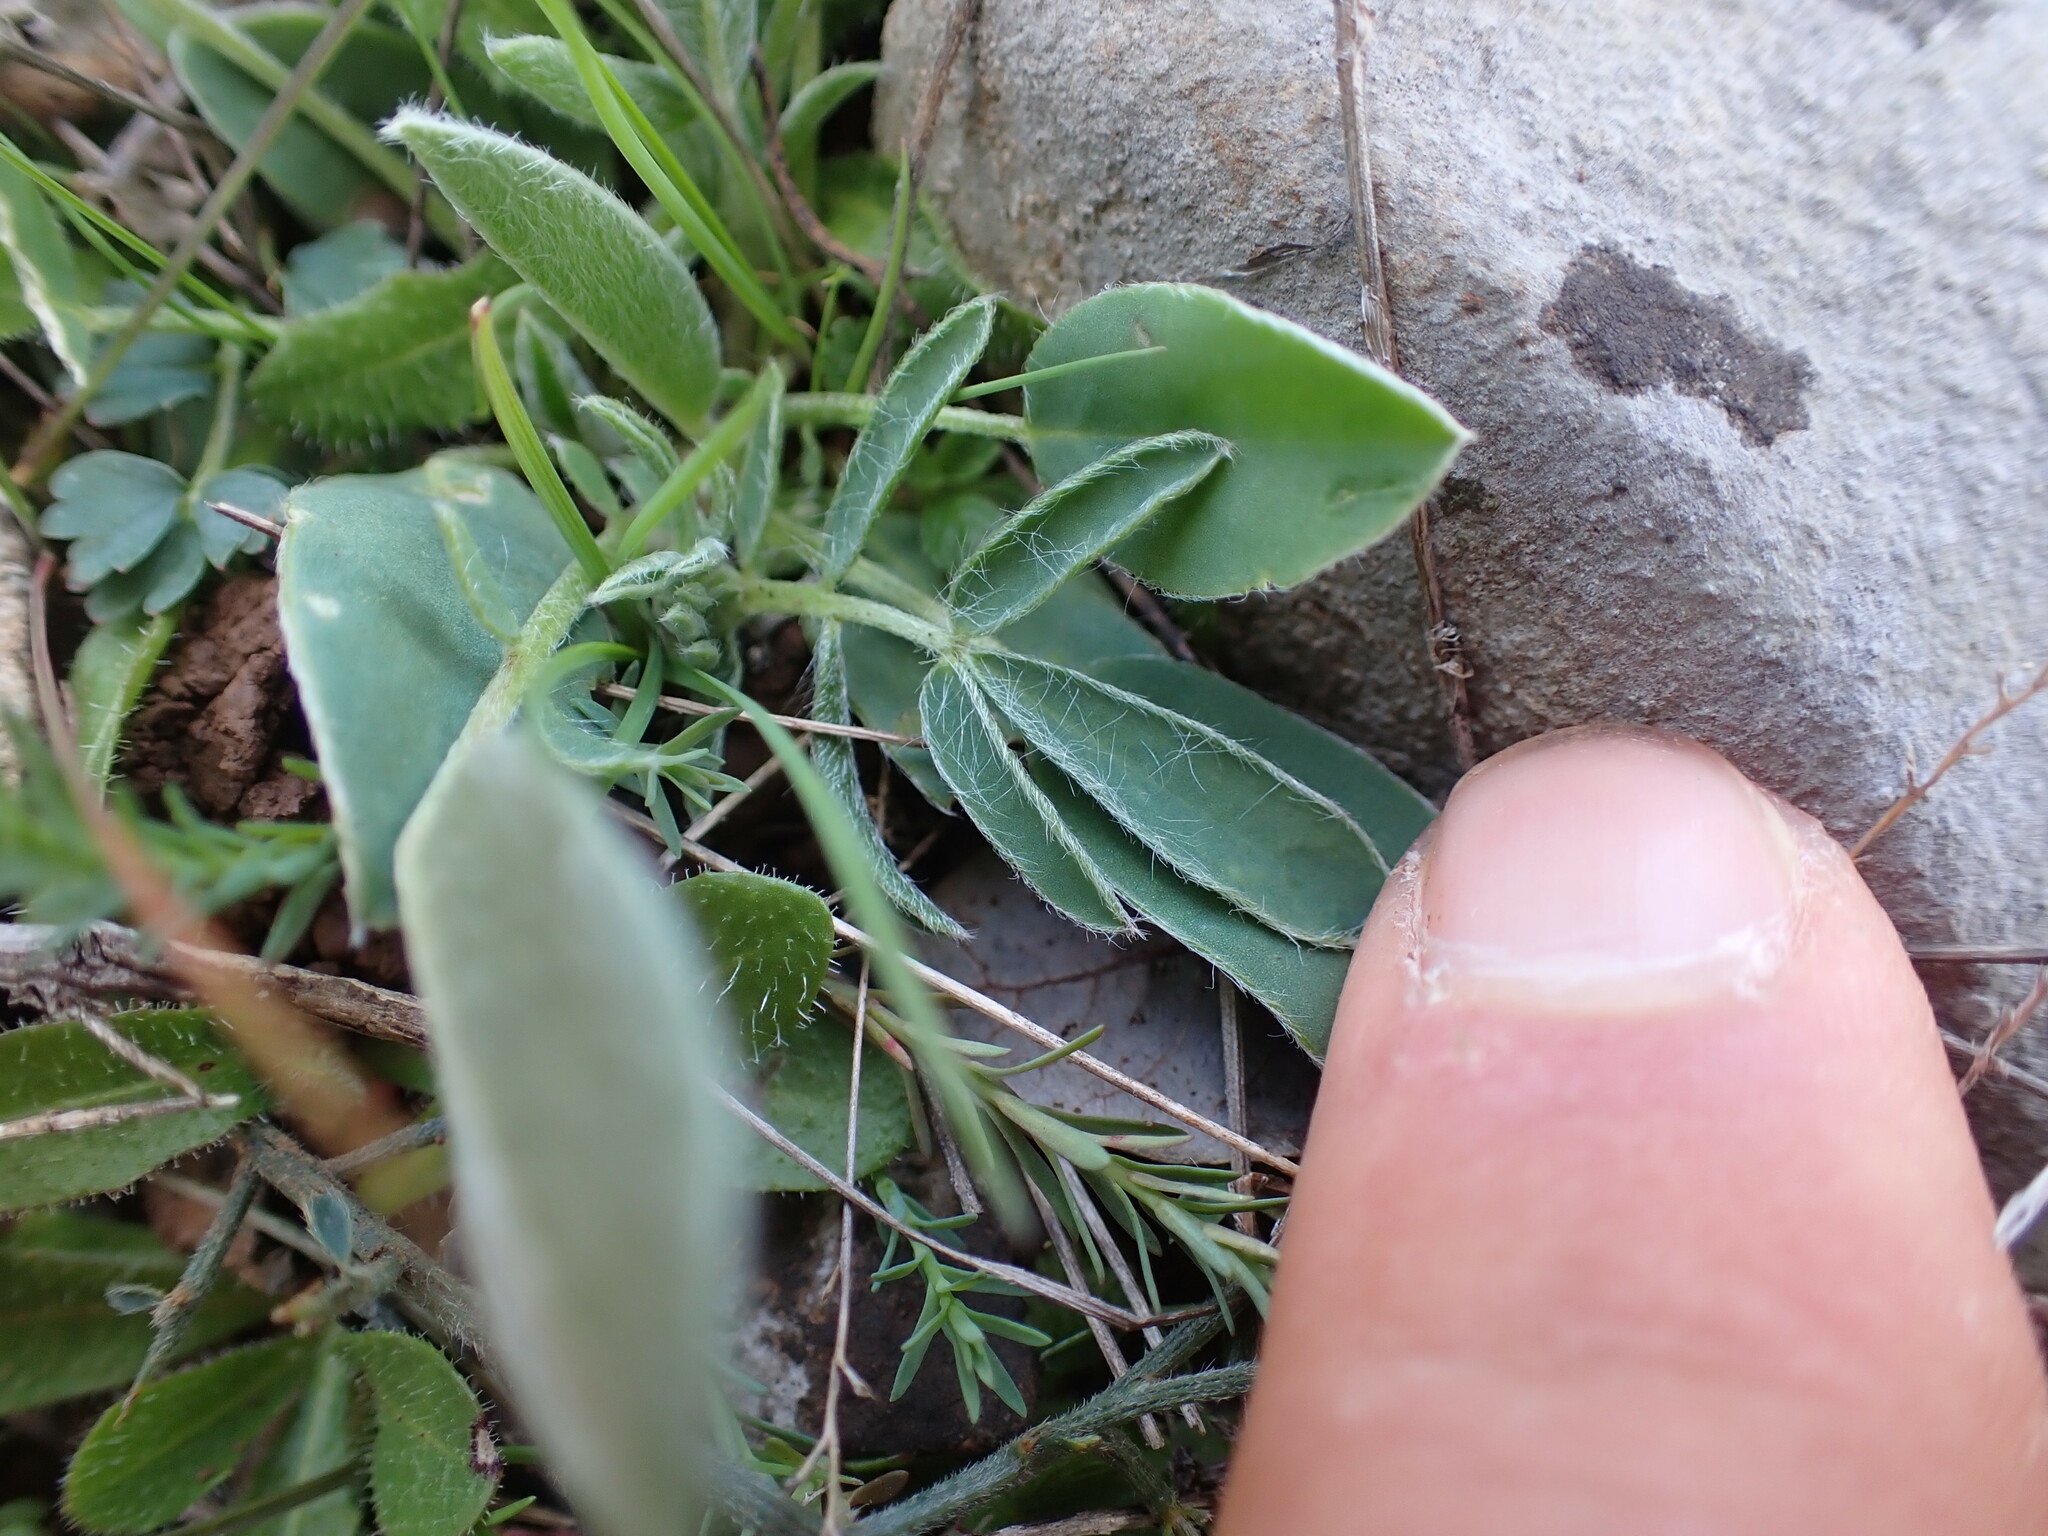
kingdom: Plantae
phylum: Tracheophyta
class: Magnoliopsida
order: Fabales
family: Fabaceae
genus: Anthyllis
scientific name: Anthyllis vulneraria
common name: Kidney vetch
